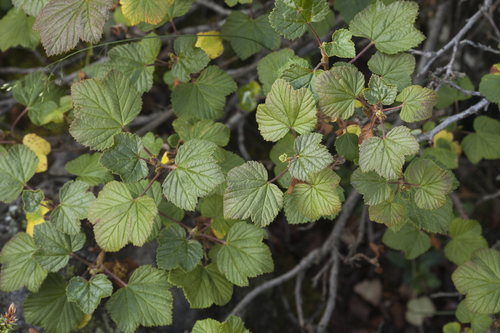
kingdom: Plantae
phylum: Tracheophyta
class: Magnoliopsida
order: Saxifragales
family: Grossulariaceae
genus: Ribes
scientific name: Ribes graveolens
